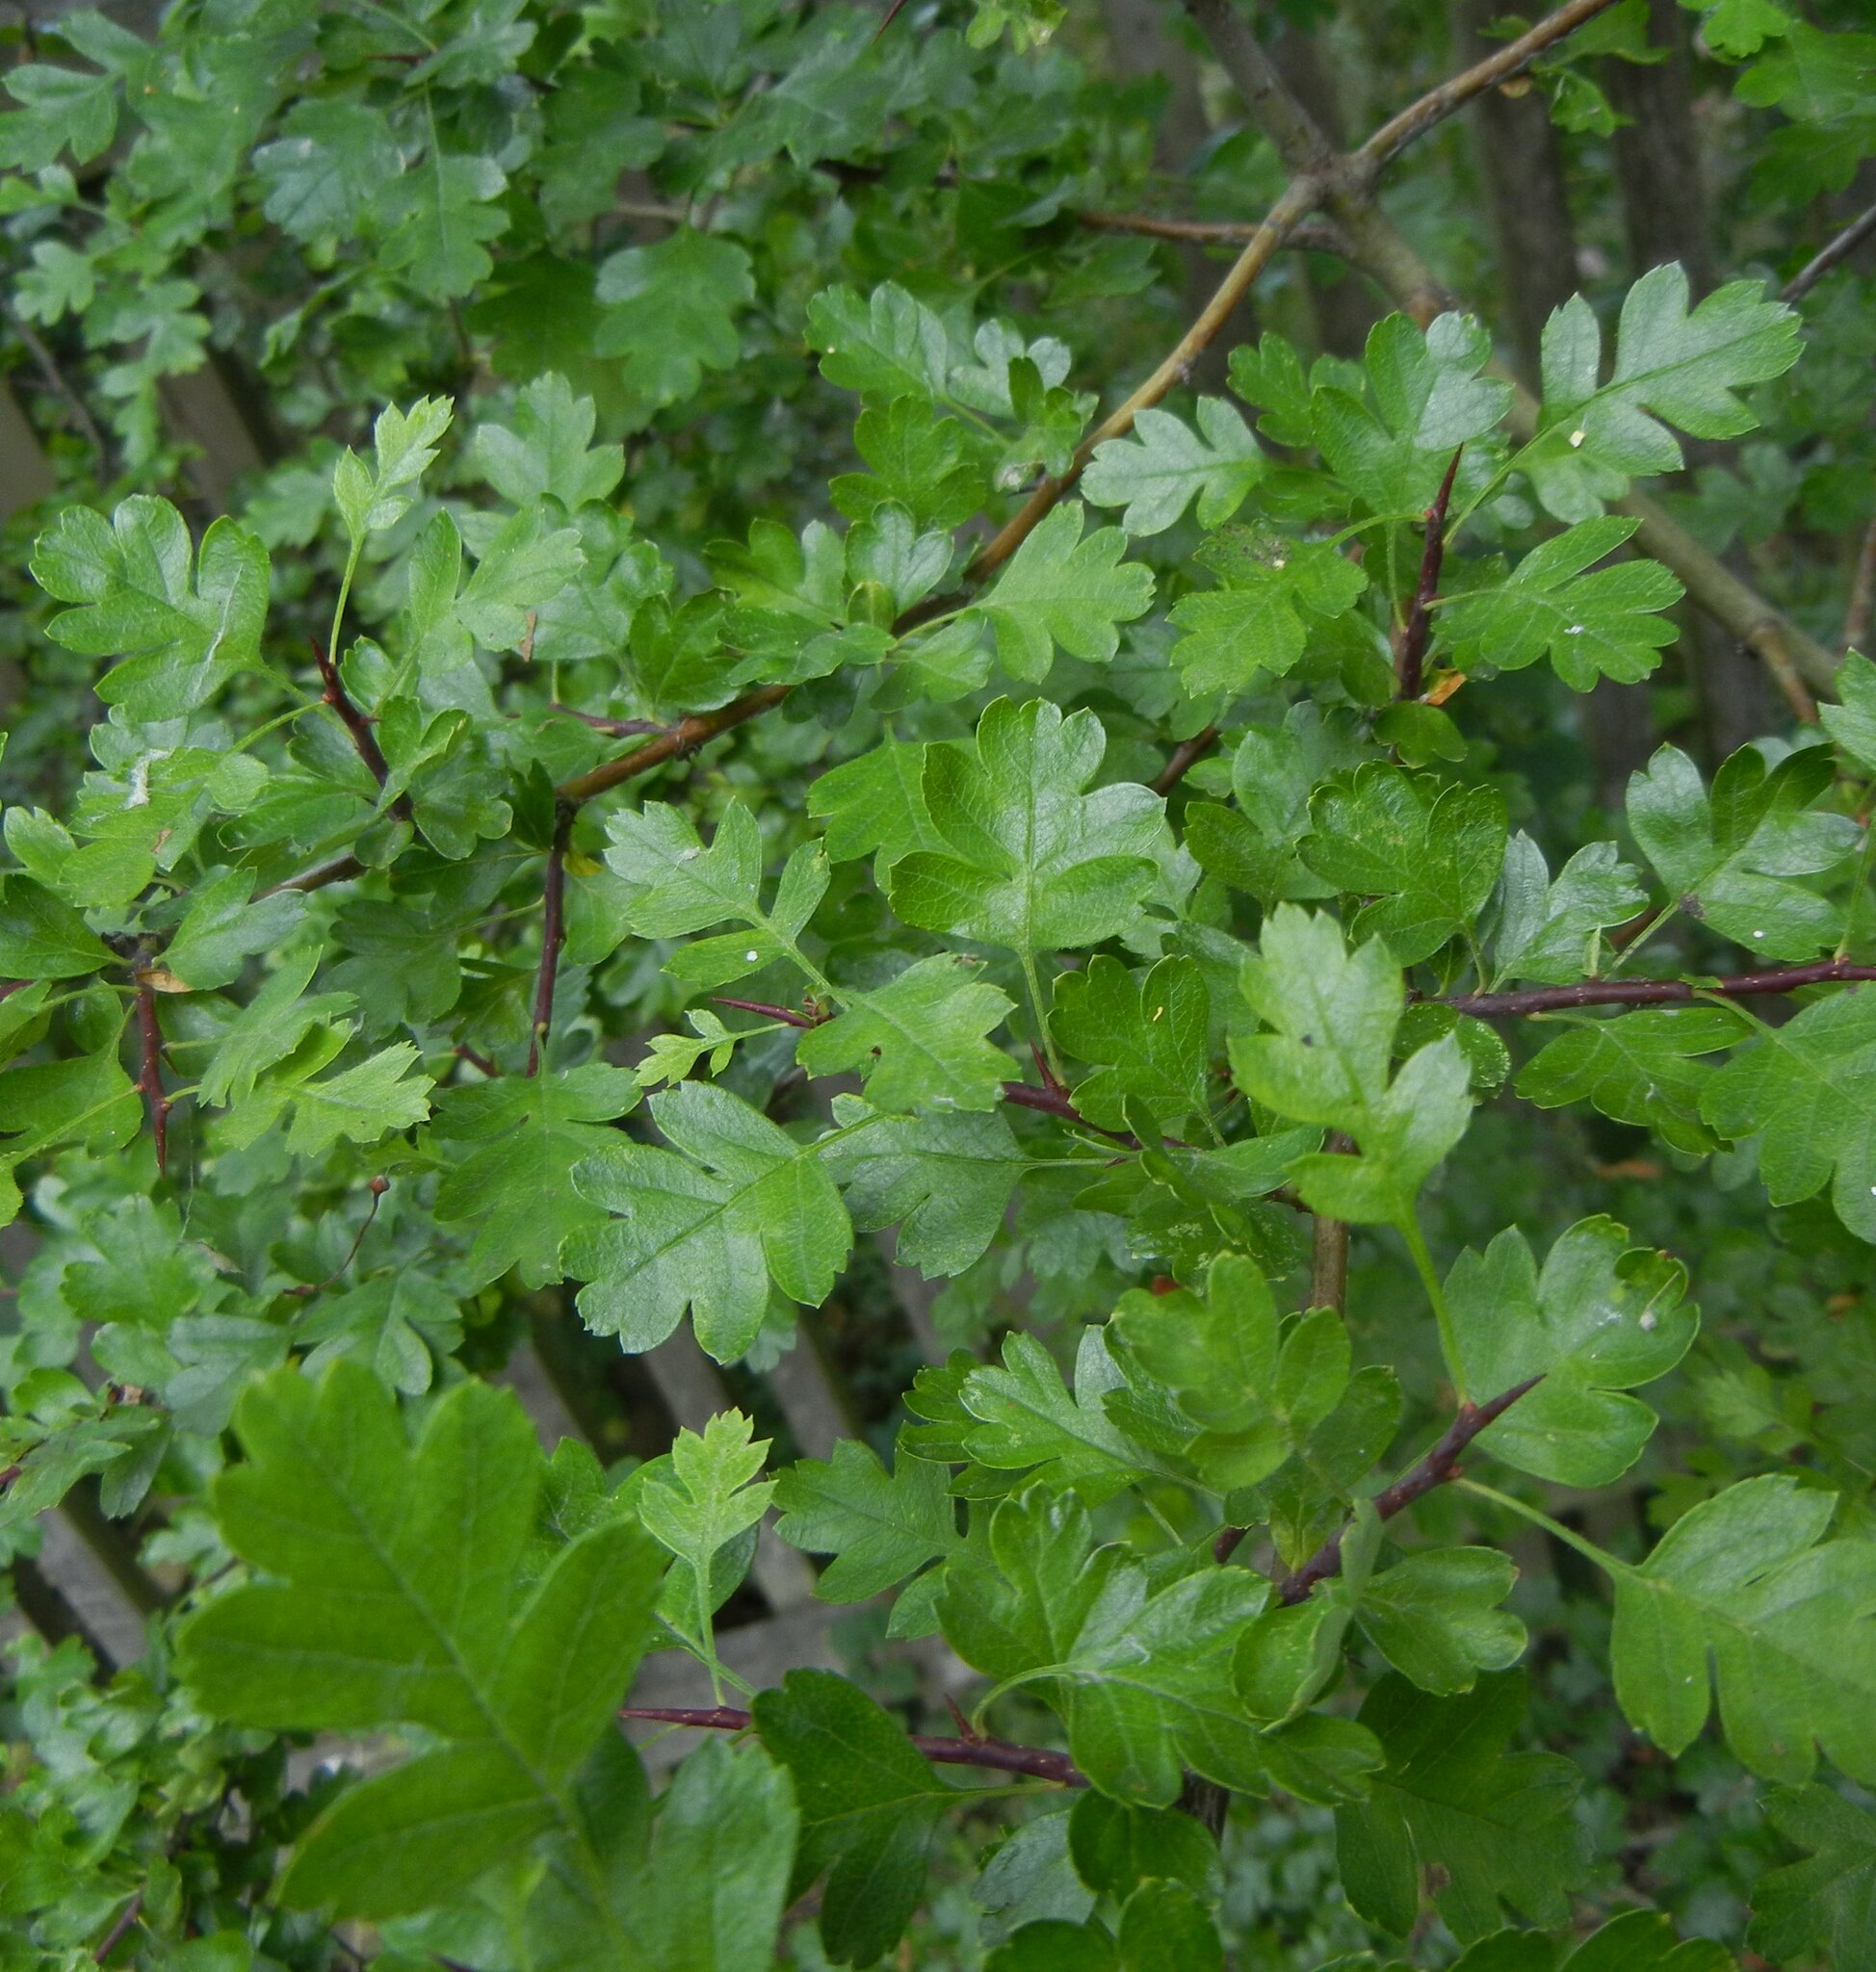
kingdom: Plantae
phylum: Tracheophyta
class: Magnoliopsida
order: Rosales
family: Rosaceae
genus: Crataegus
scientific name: Crataegus monogyna
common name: Hawthorn
